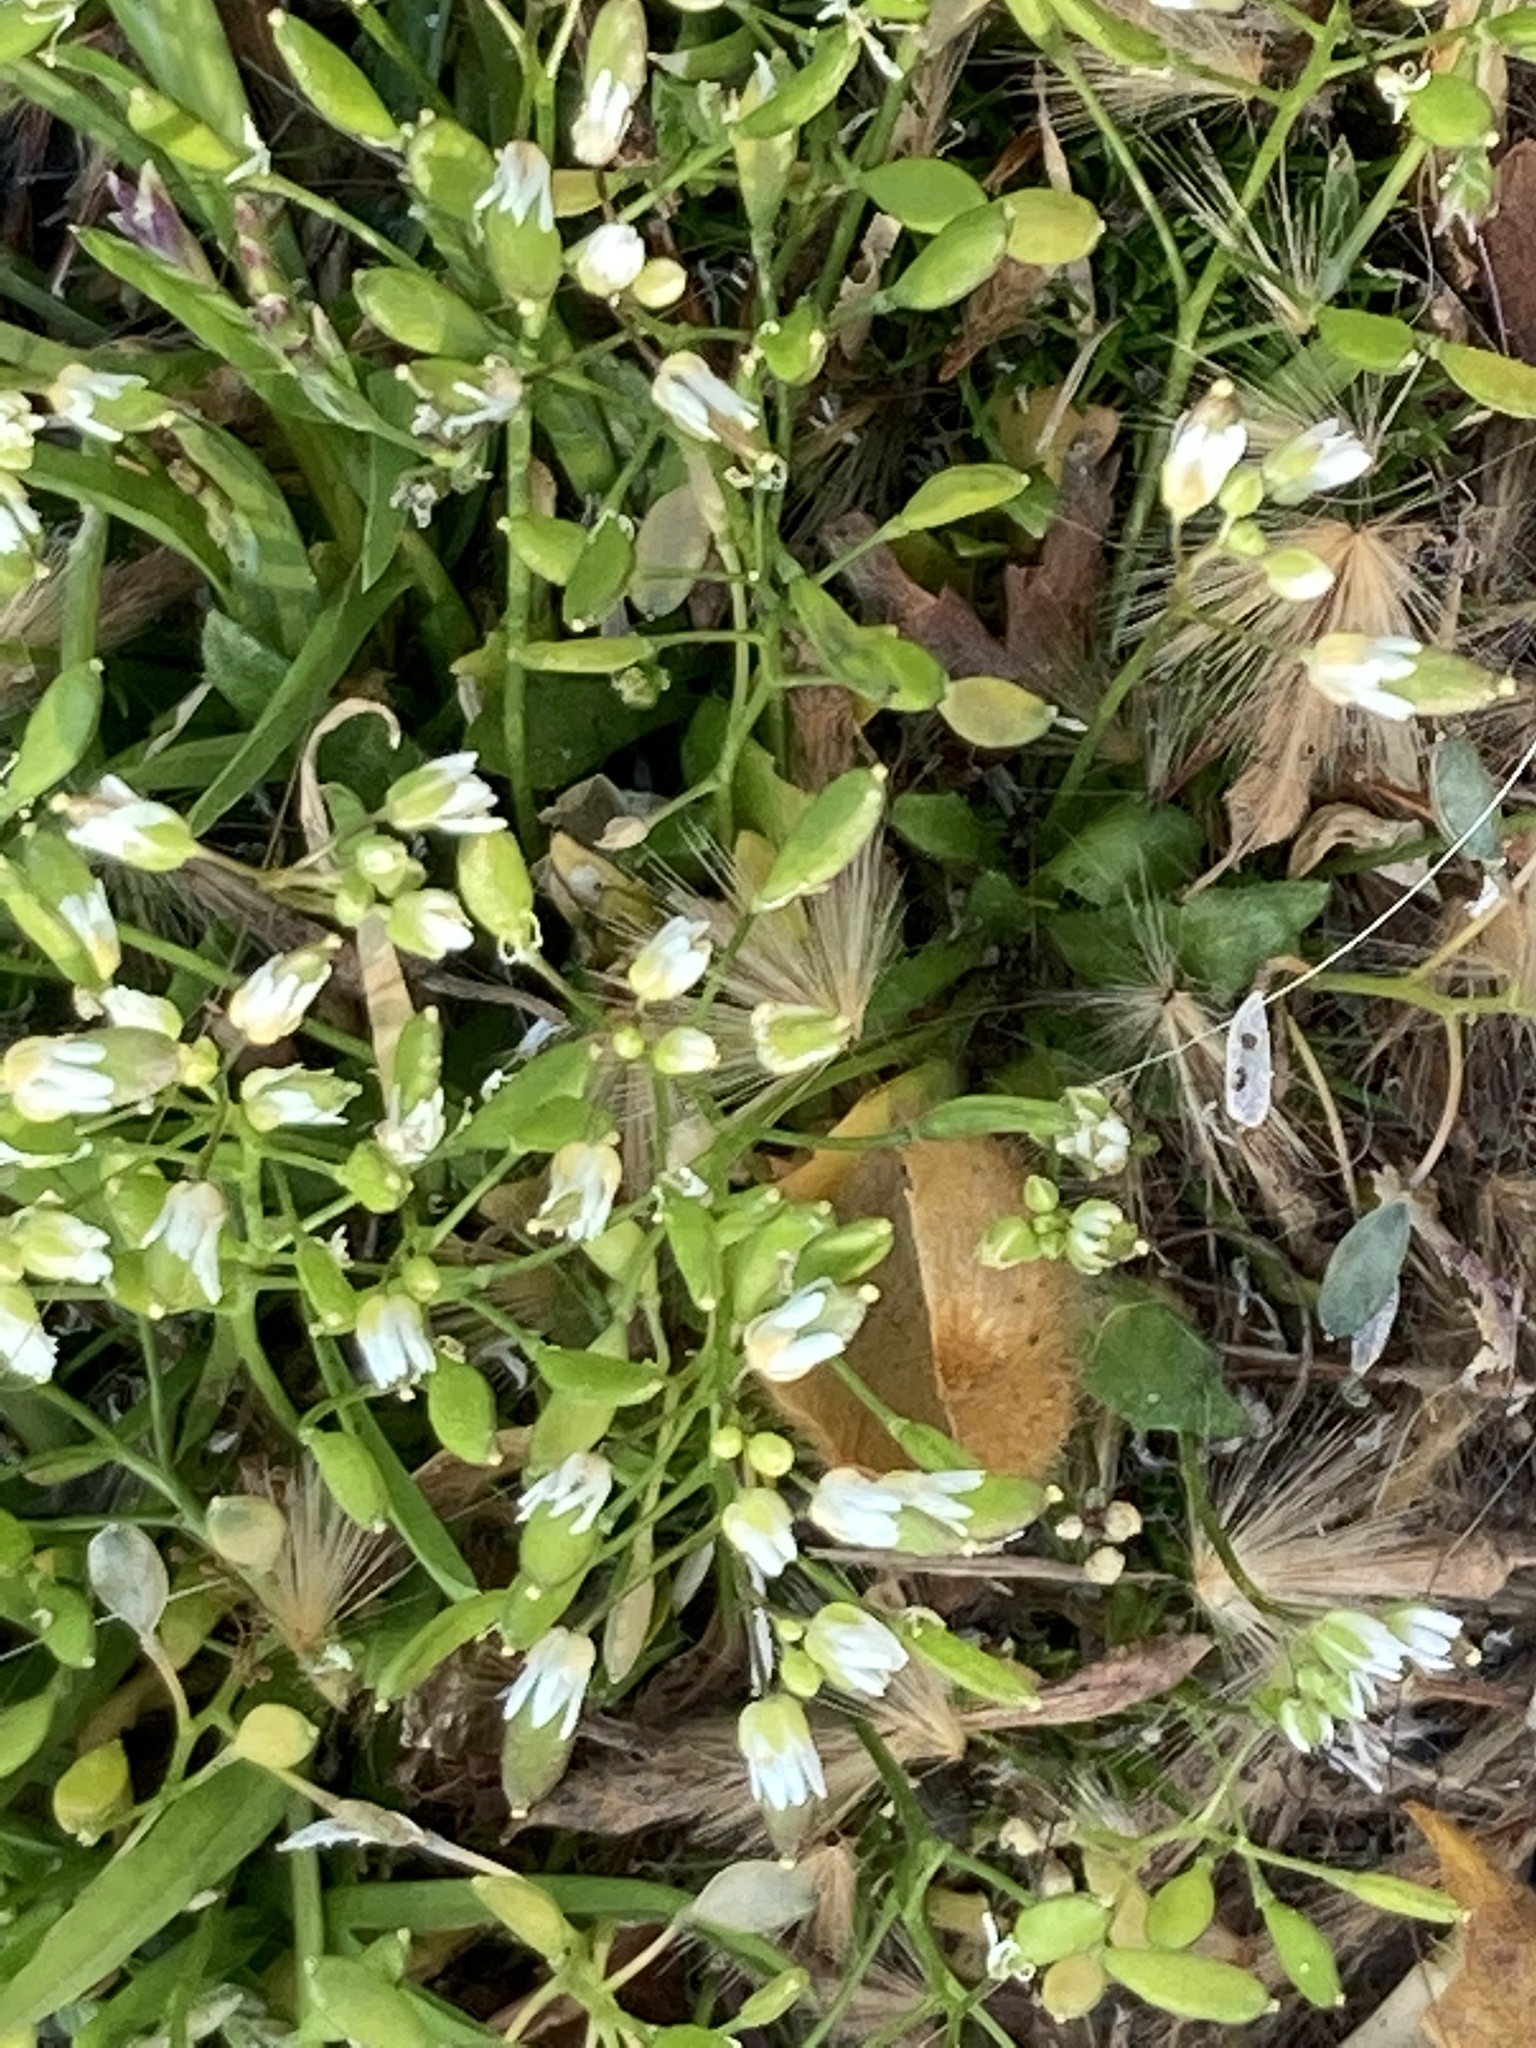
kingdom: Plantae
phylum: Tracheophyta
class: Magnoliopsida
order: Brassicales
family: Brassicaceae
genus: Draba
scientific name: Draba verna
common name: Spring draba
